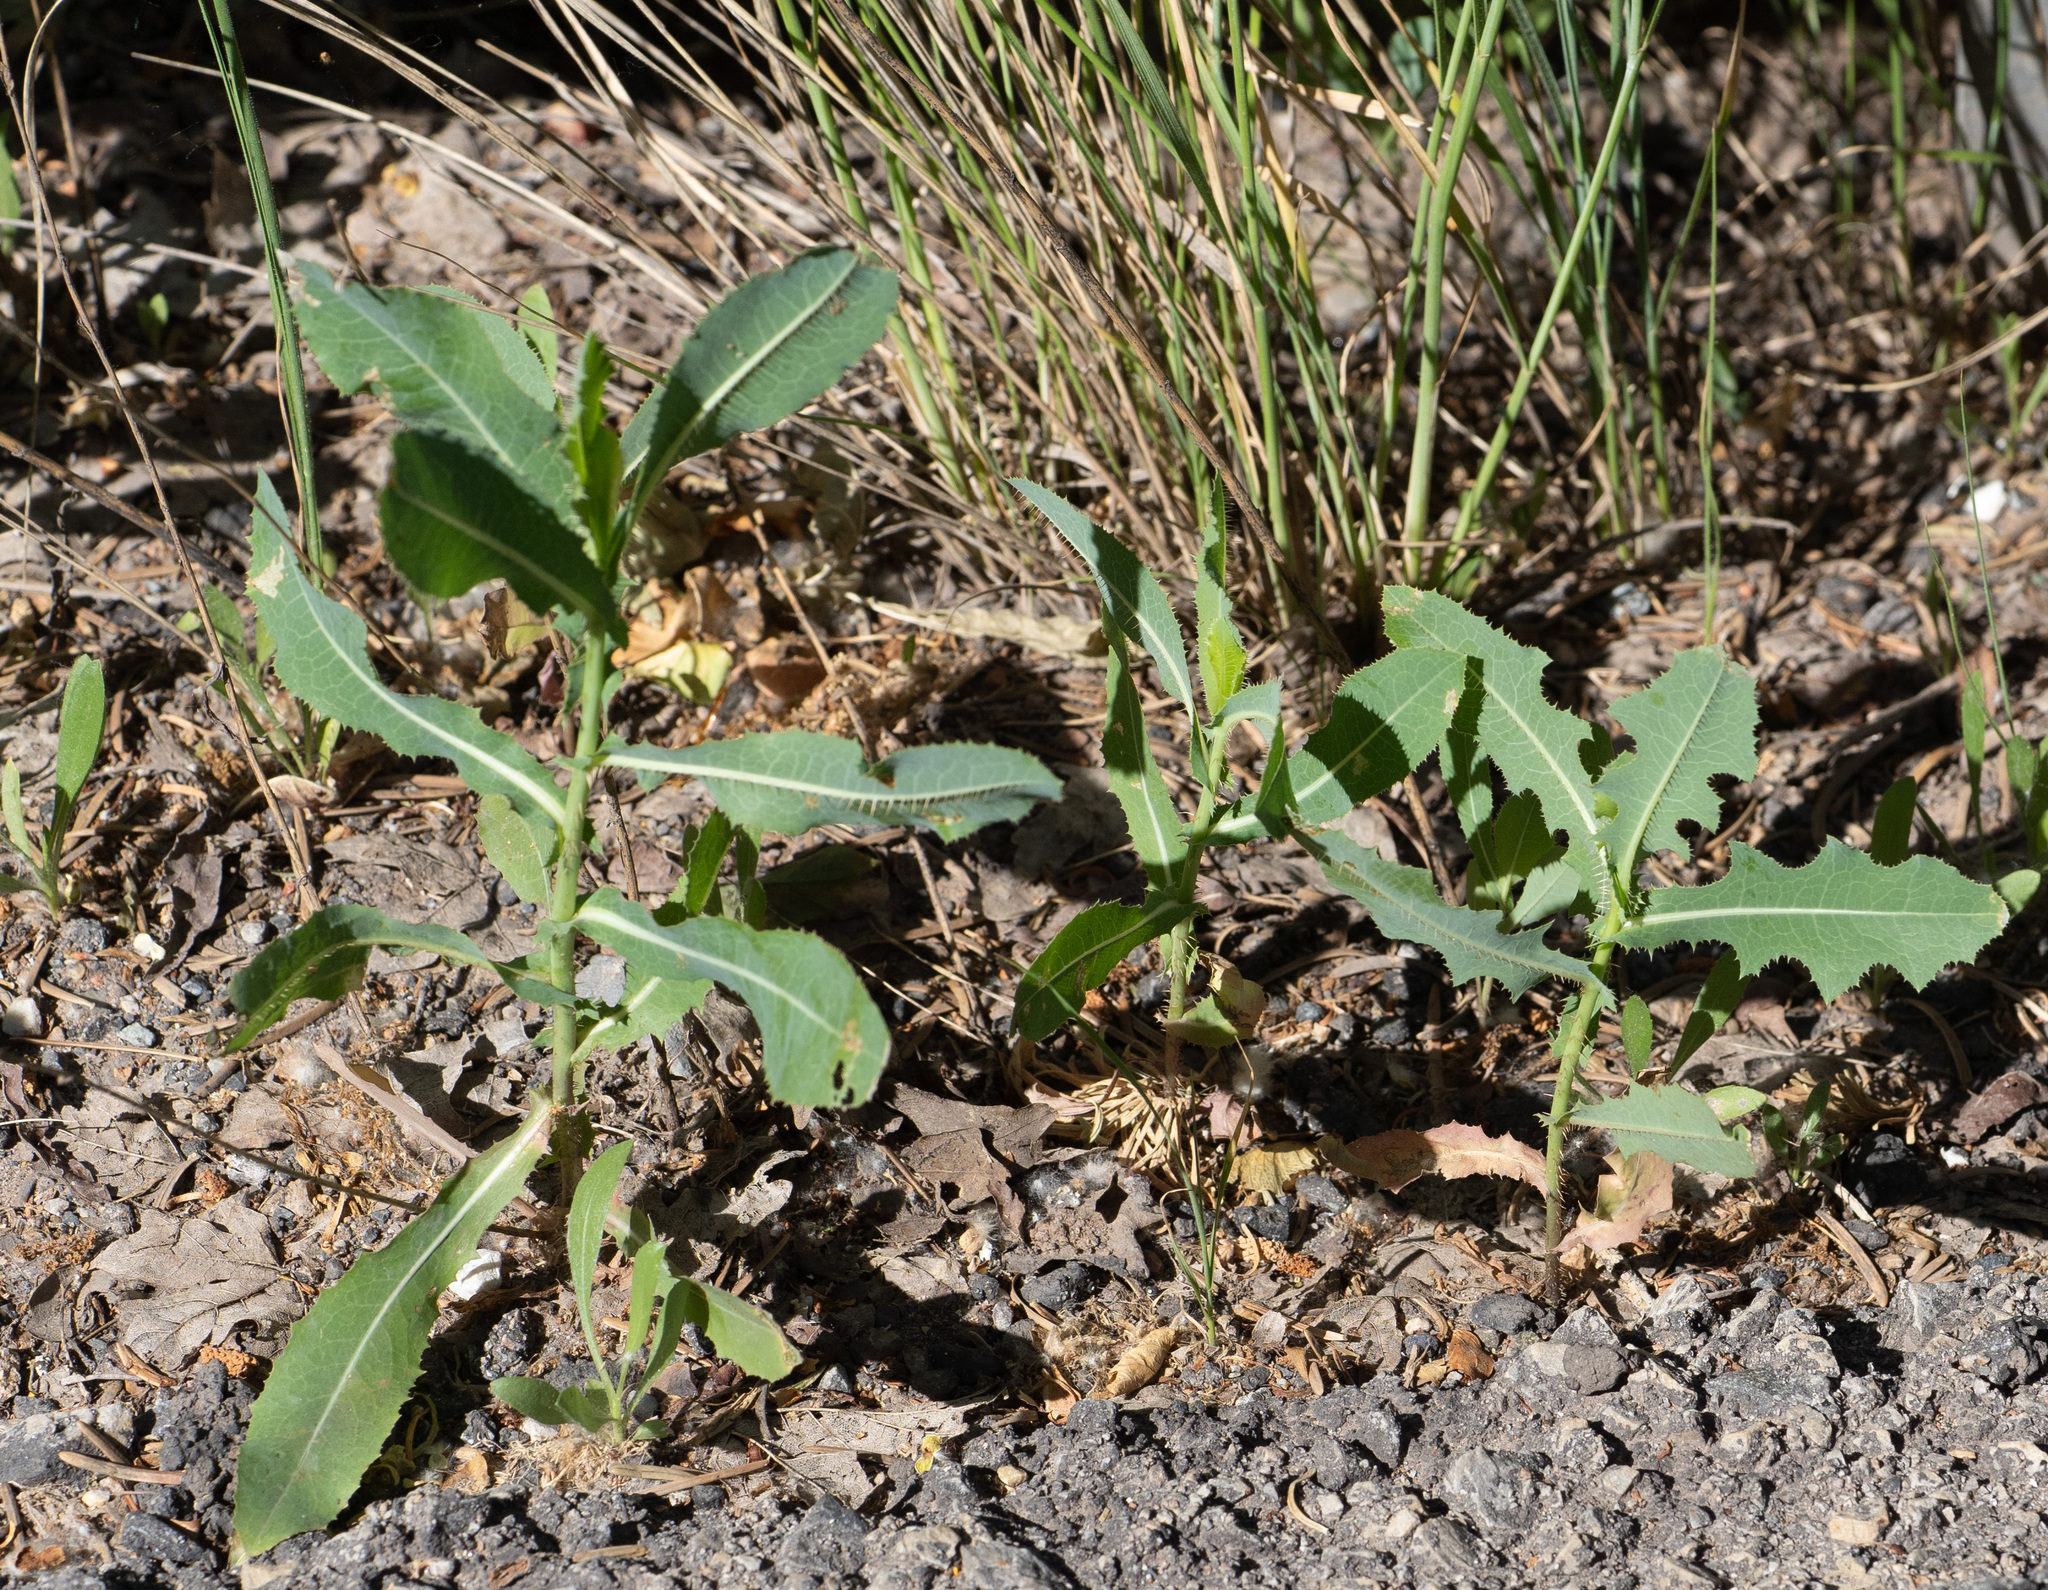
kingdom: Plantae
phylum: Tracheophyta
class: Magnoliopsida
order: Asterales
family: Asteraceae
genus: Lactuca
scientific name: Lactuca serriola
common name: Prickly lettuce
